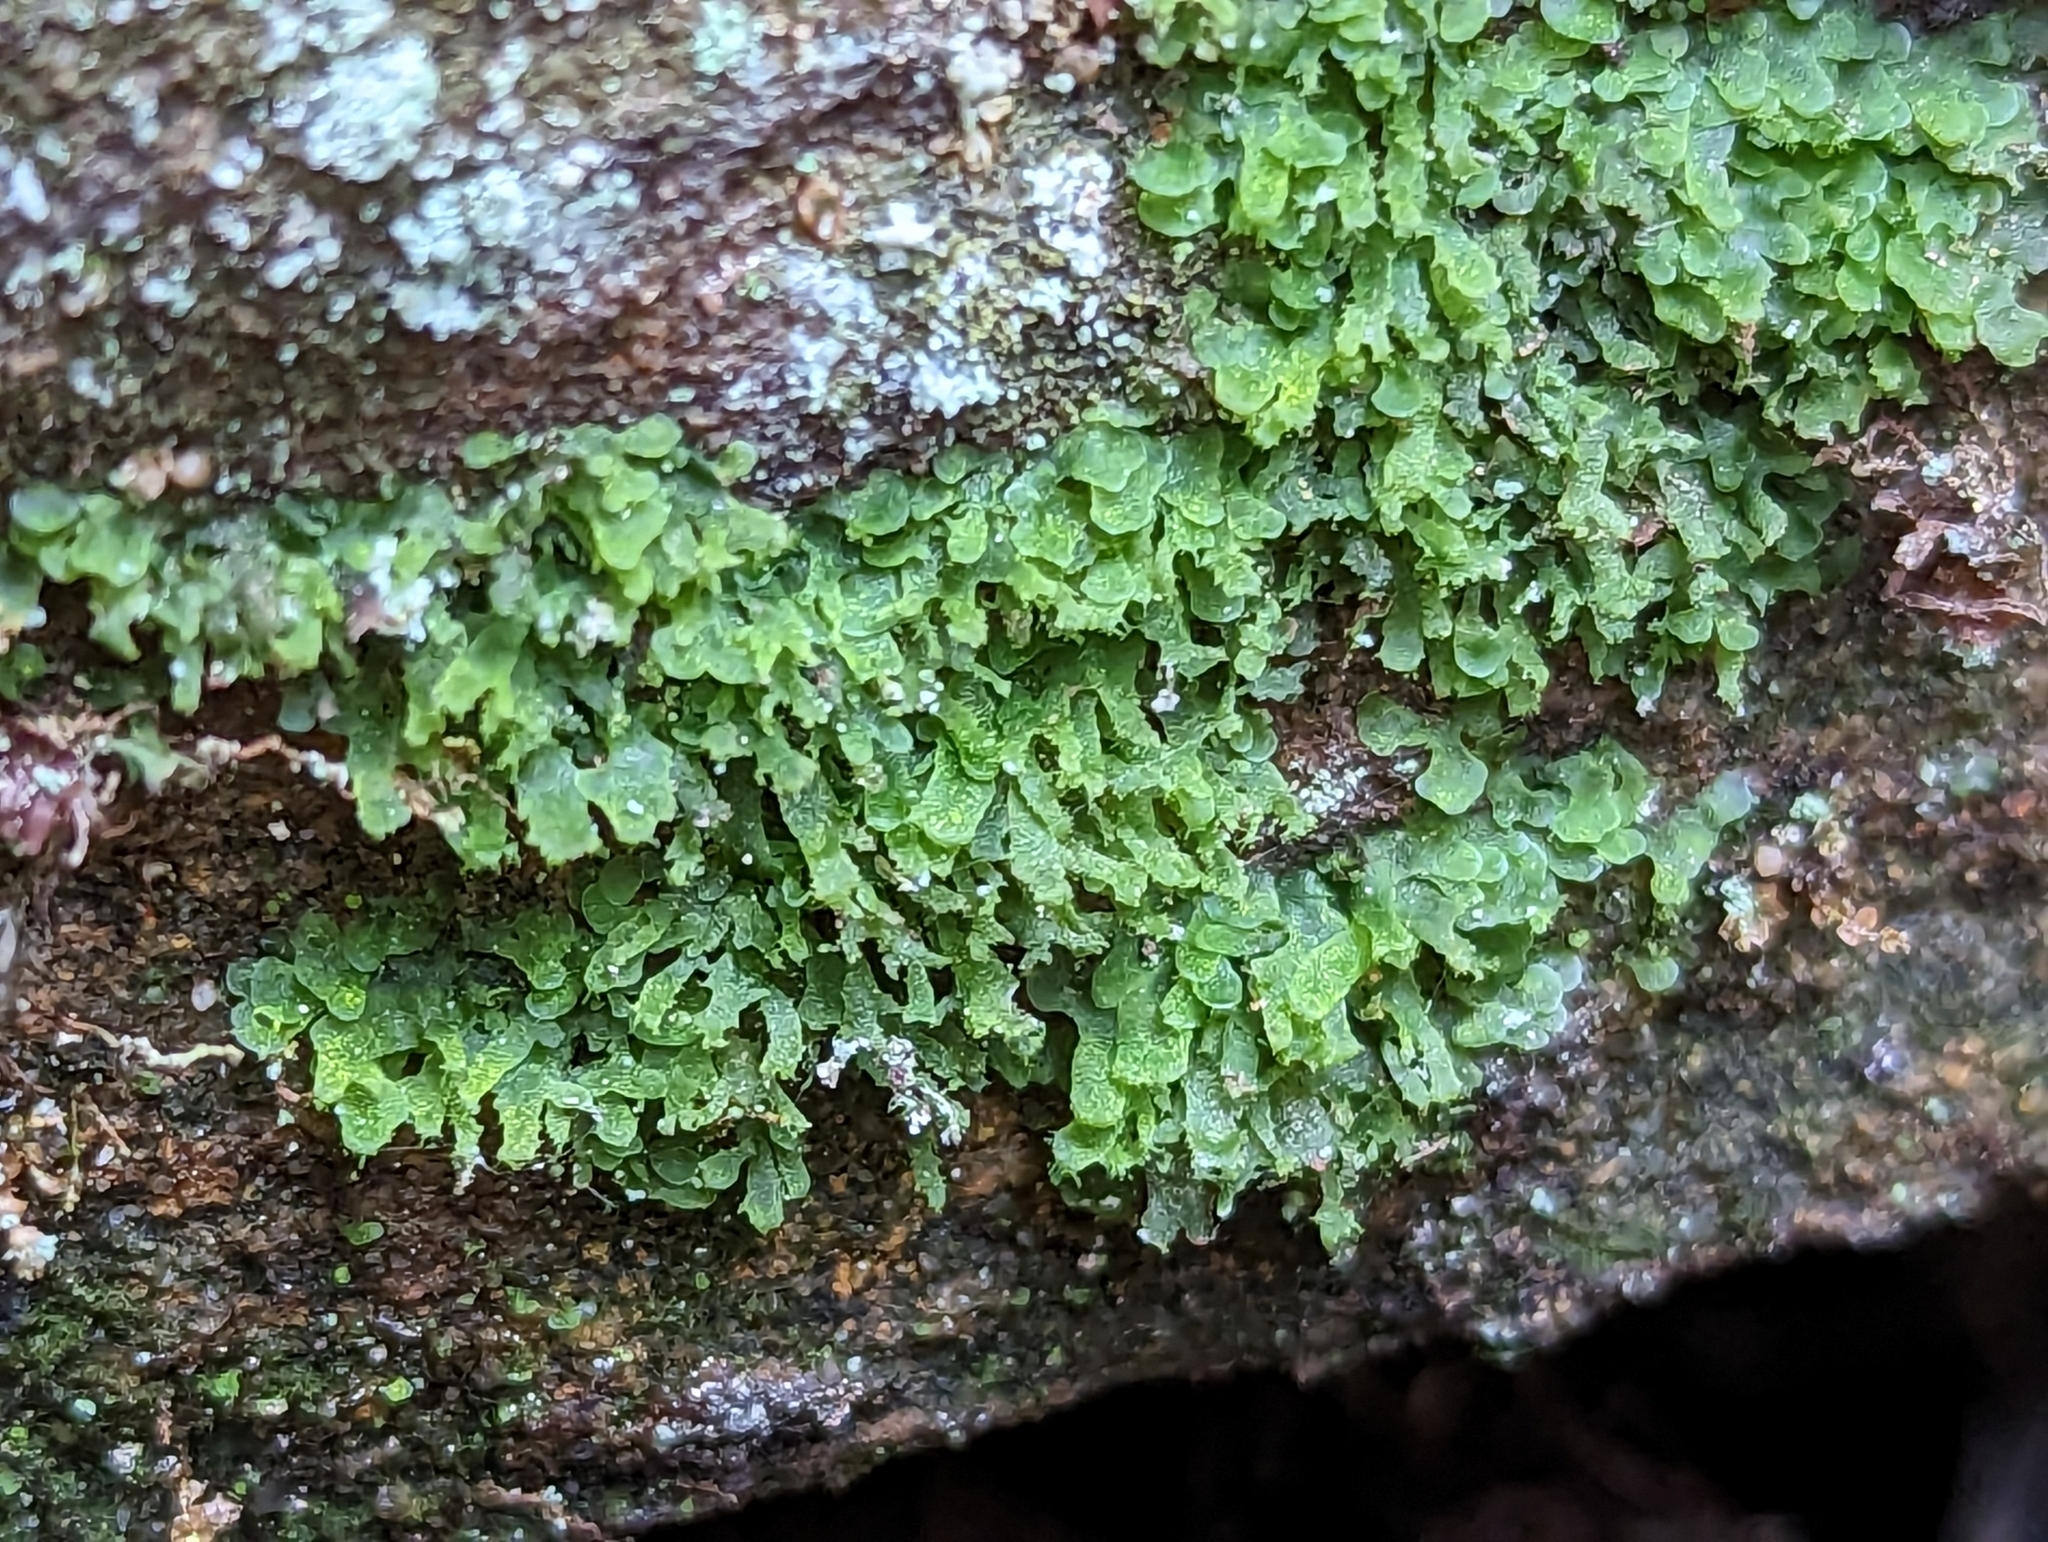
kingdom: Plantae
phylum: Tracheophyta
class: Polypodiopsida
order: Polypodiales
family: Pteridaceae
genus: Vittaria
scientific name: Vittaria appalachiana
